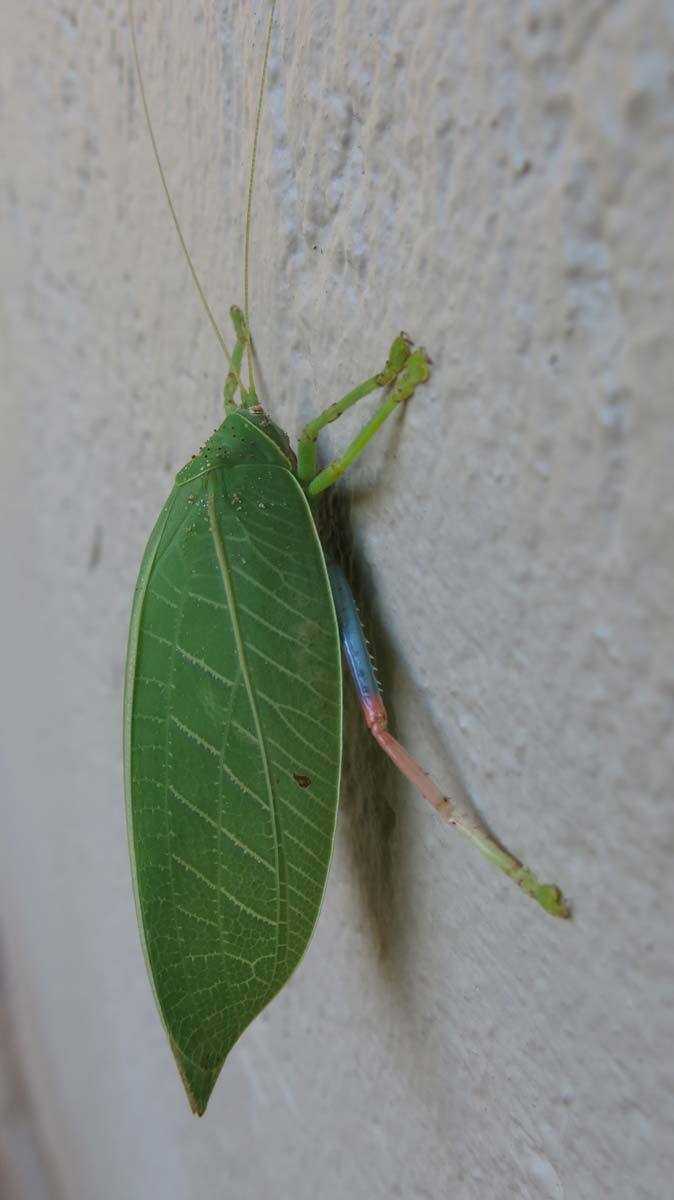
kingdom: Animalia
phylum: Arthropoda
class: Insecta
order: Orthoptera
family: Tettigoniidae
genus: Zabalius
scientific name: Zabalius ophthalmicus
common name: Blue-legged sylvan katydid
